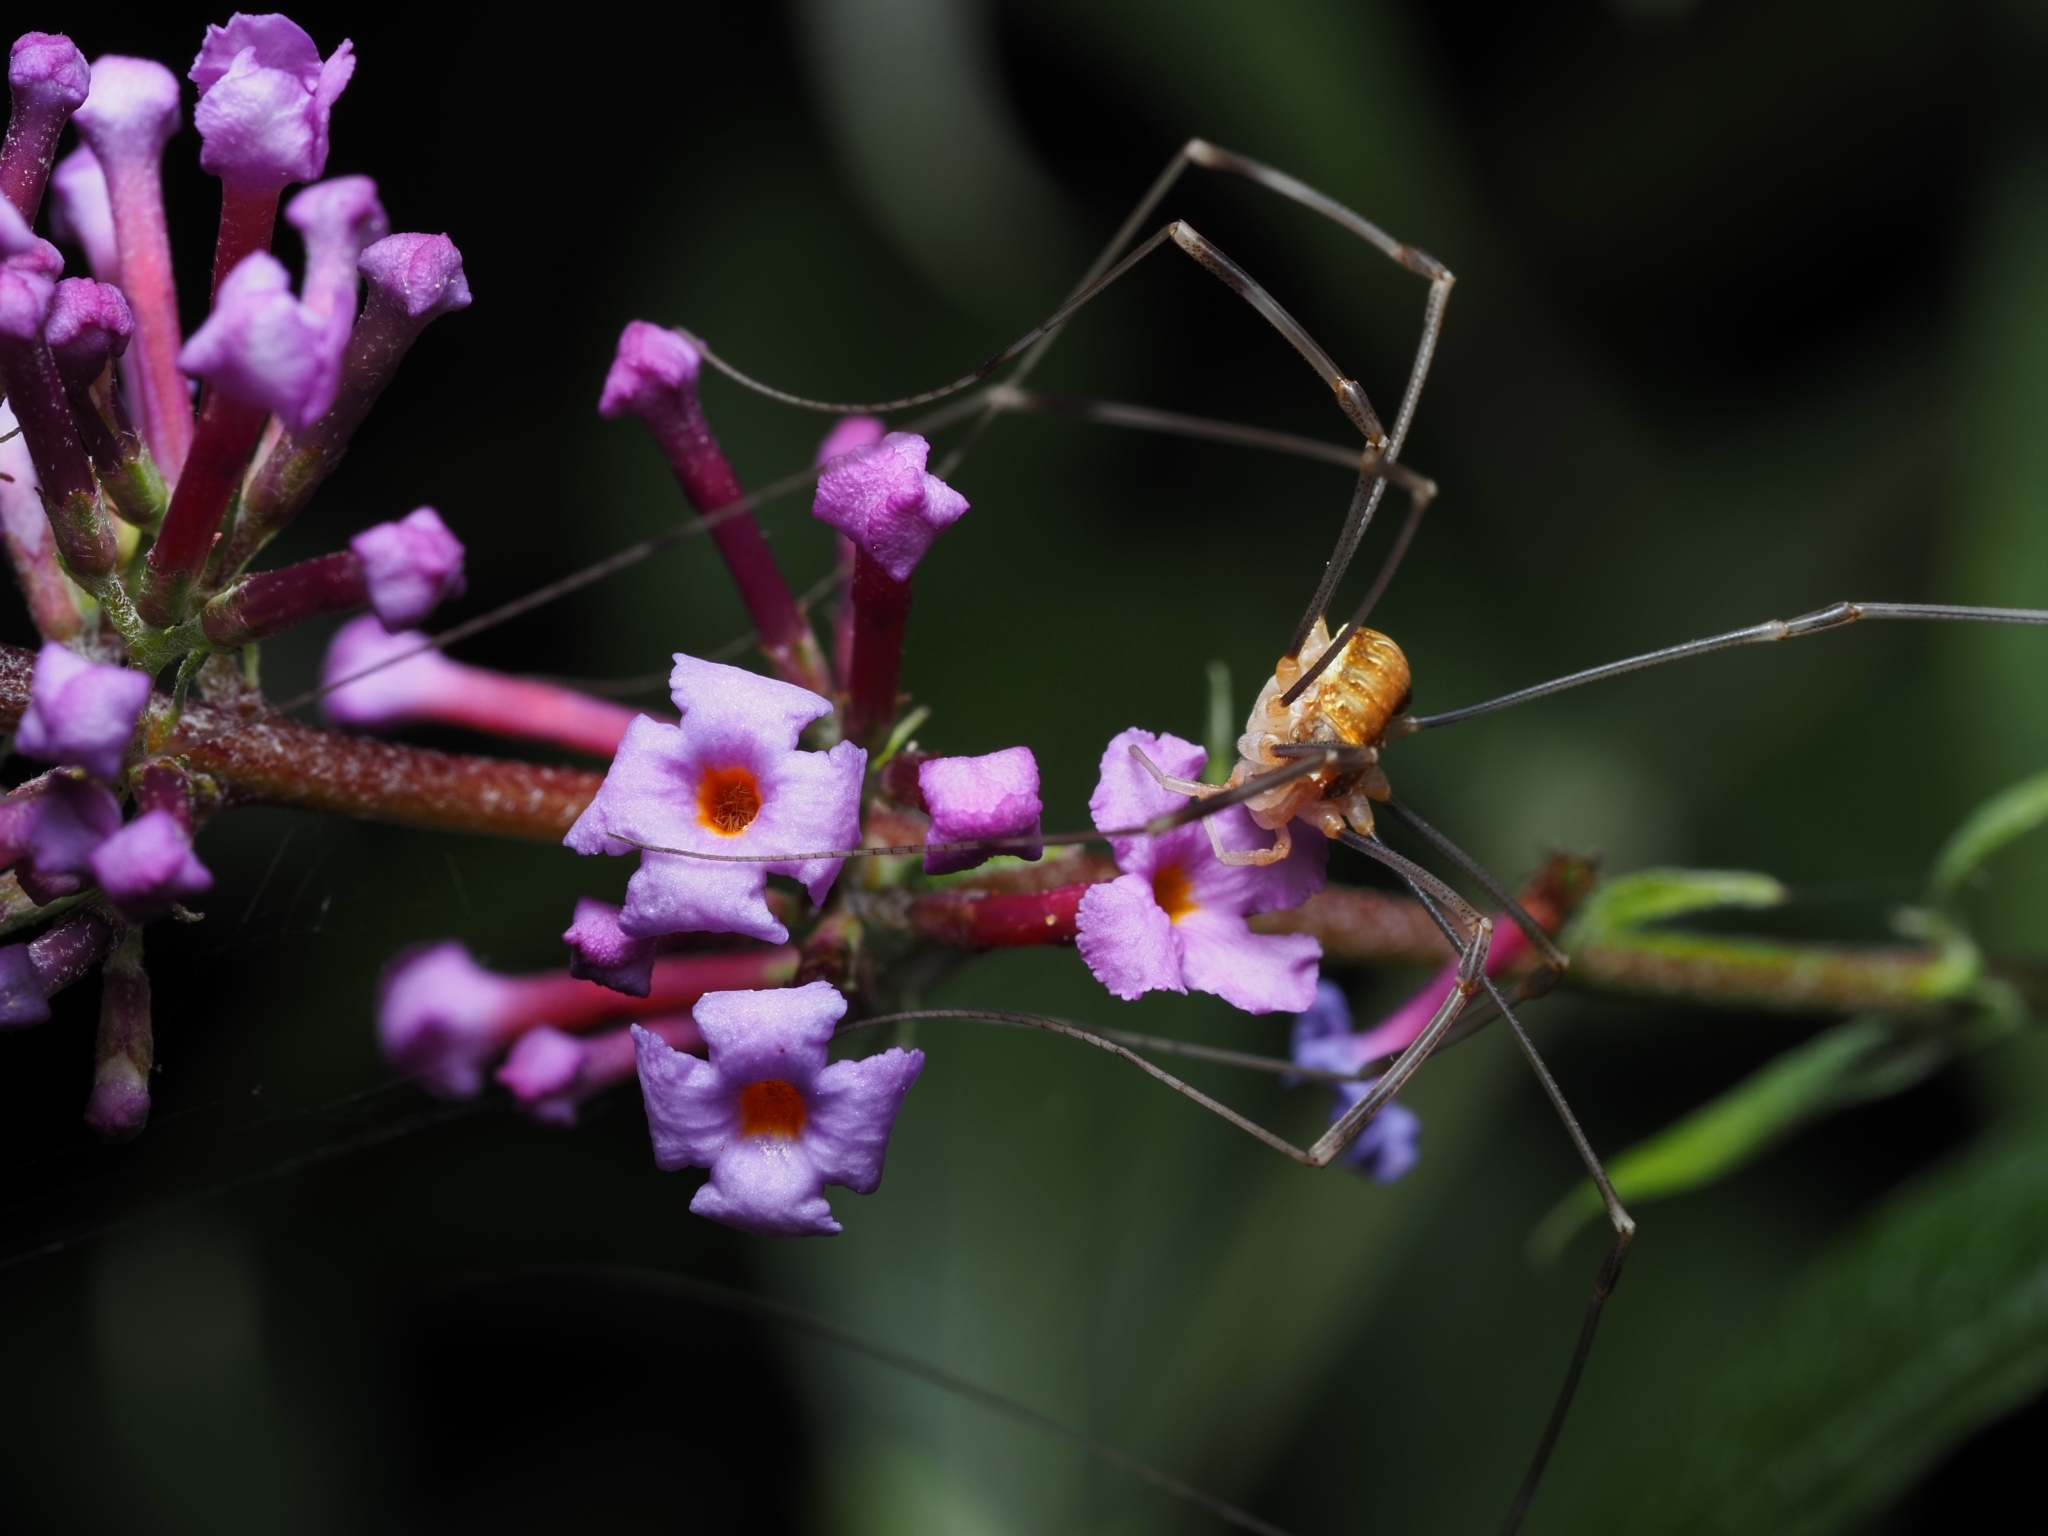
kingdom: Animalia
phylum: Arthropoda
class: Arachnida
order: Opiliones
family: Phalangiidae
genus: Opilio
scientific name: Opilio canestrinii
